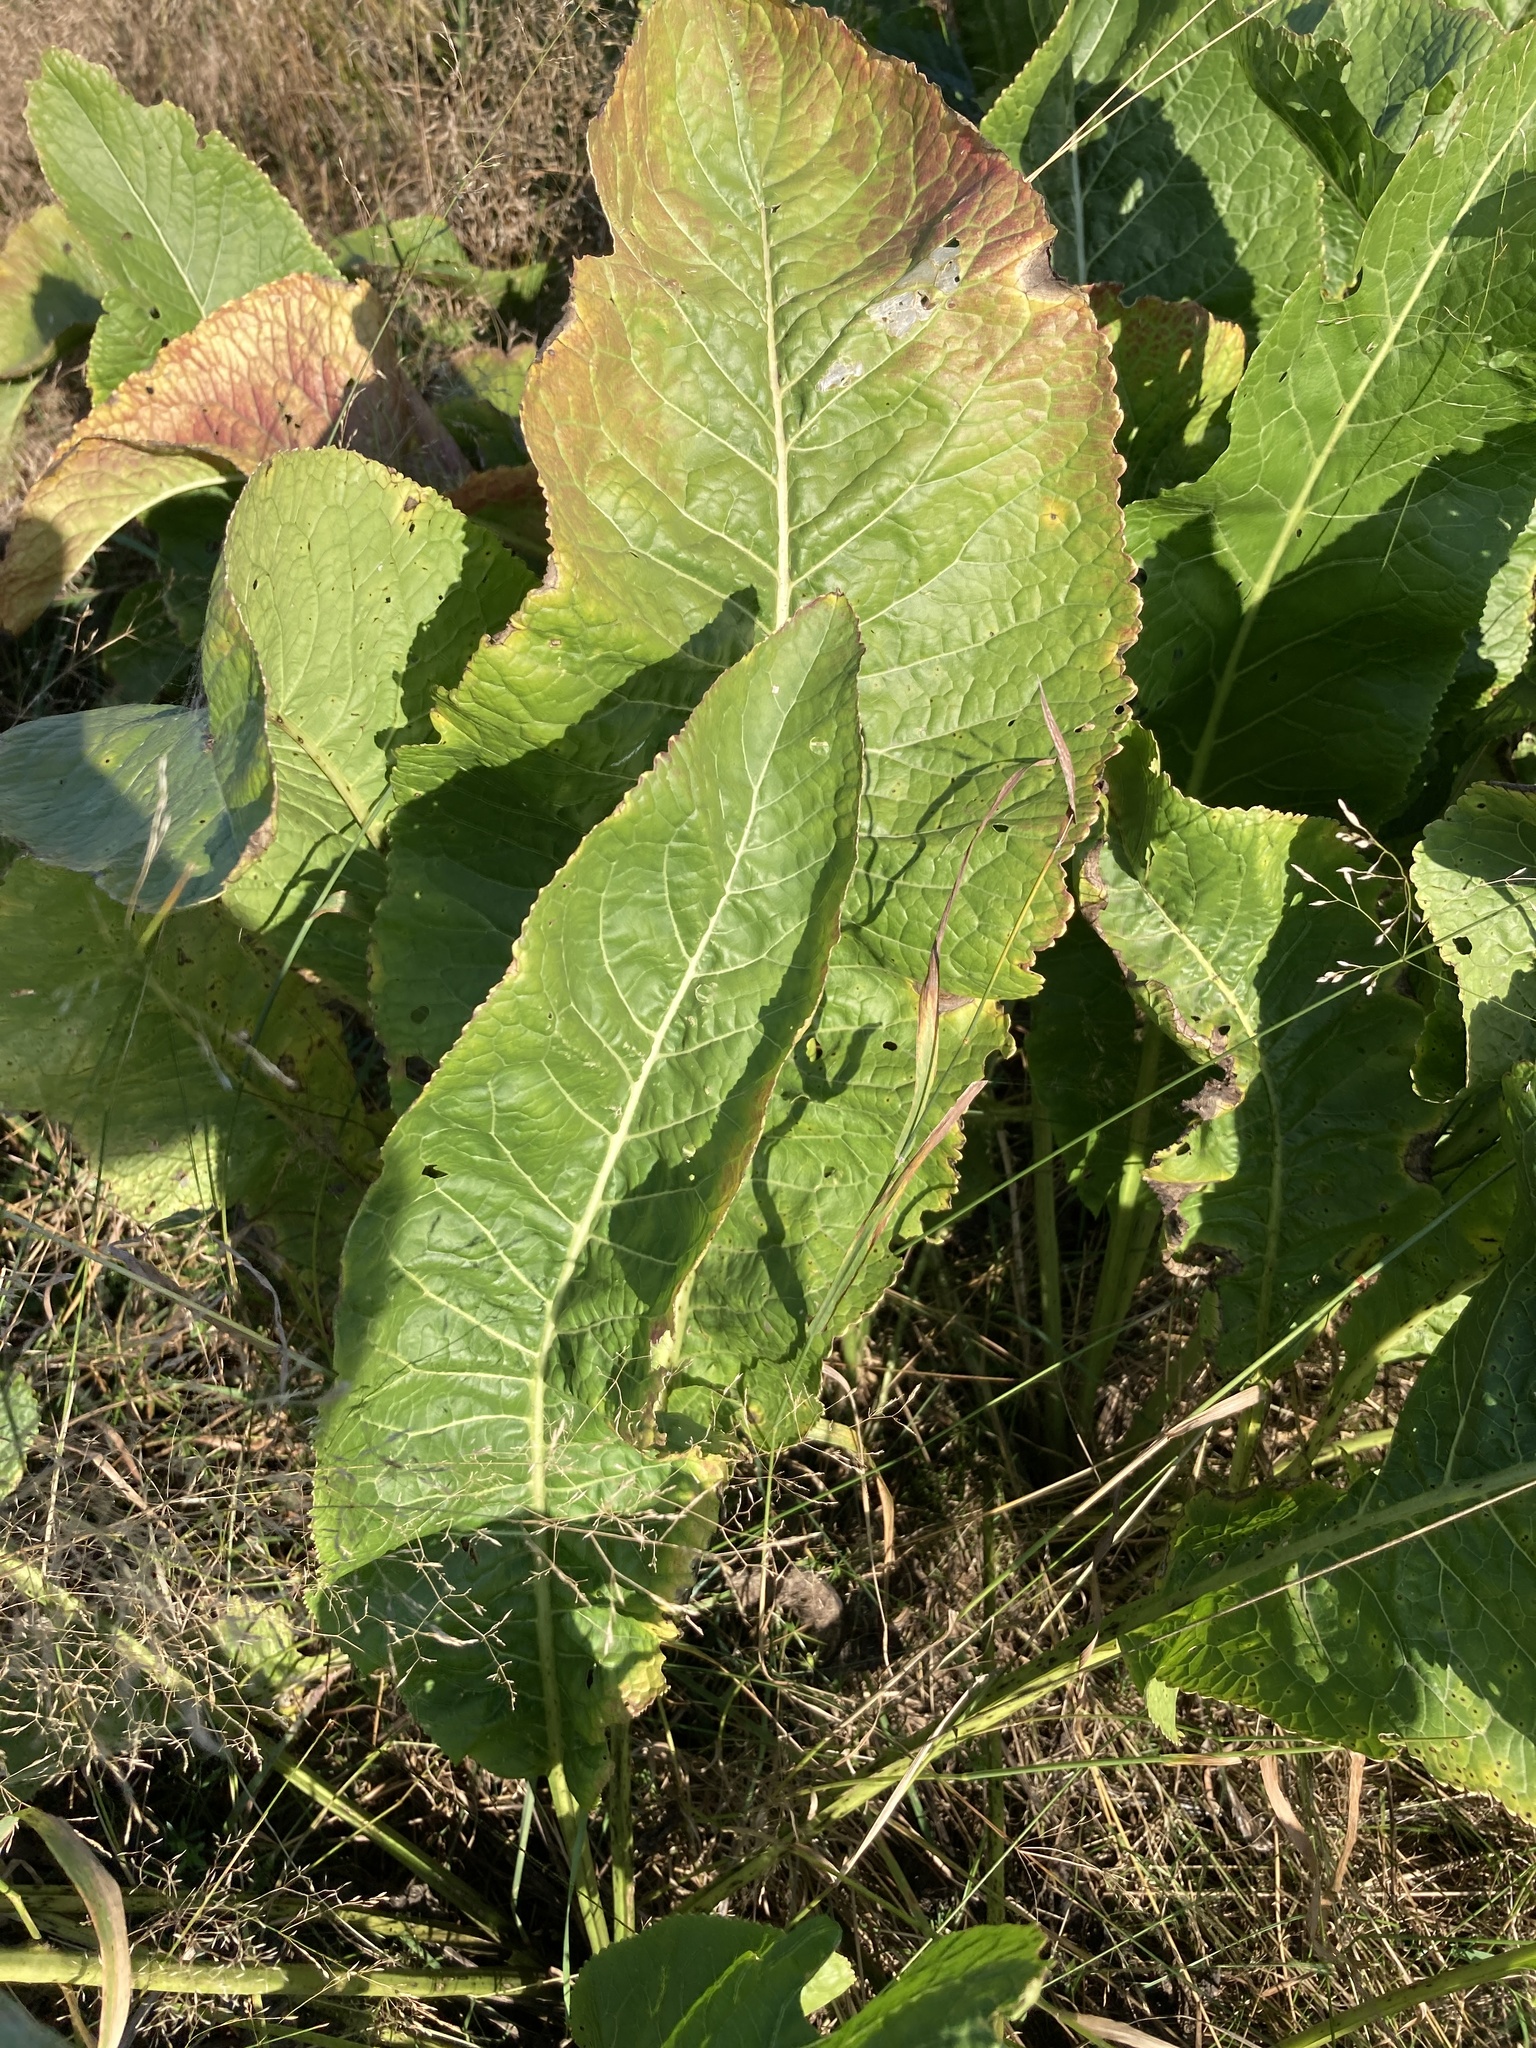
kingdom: Plantae
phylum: Tracheophyta
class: Magnoliopsida
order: Brassicales
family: Brassicaceae
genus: Armoracia
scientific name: Armoracia rusticana
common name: Horseradish
